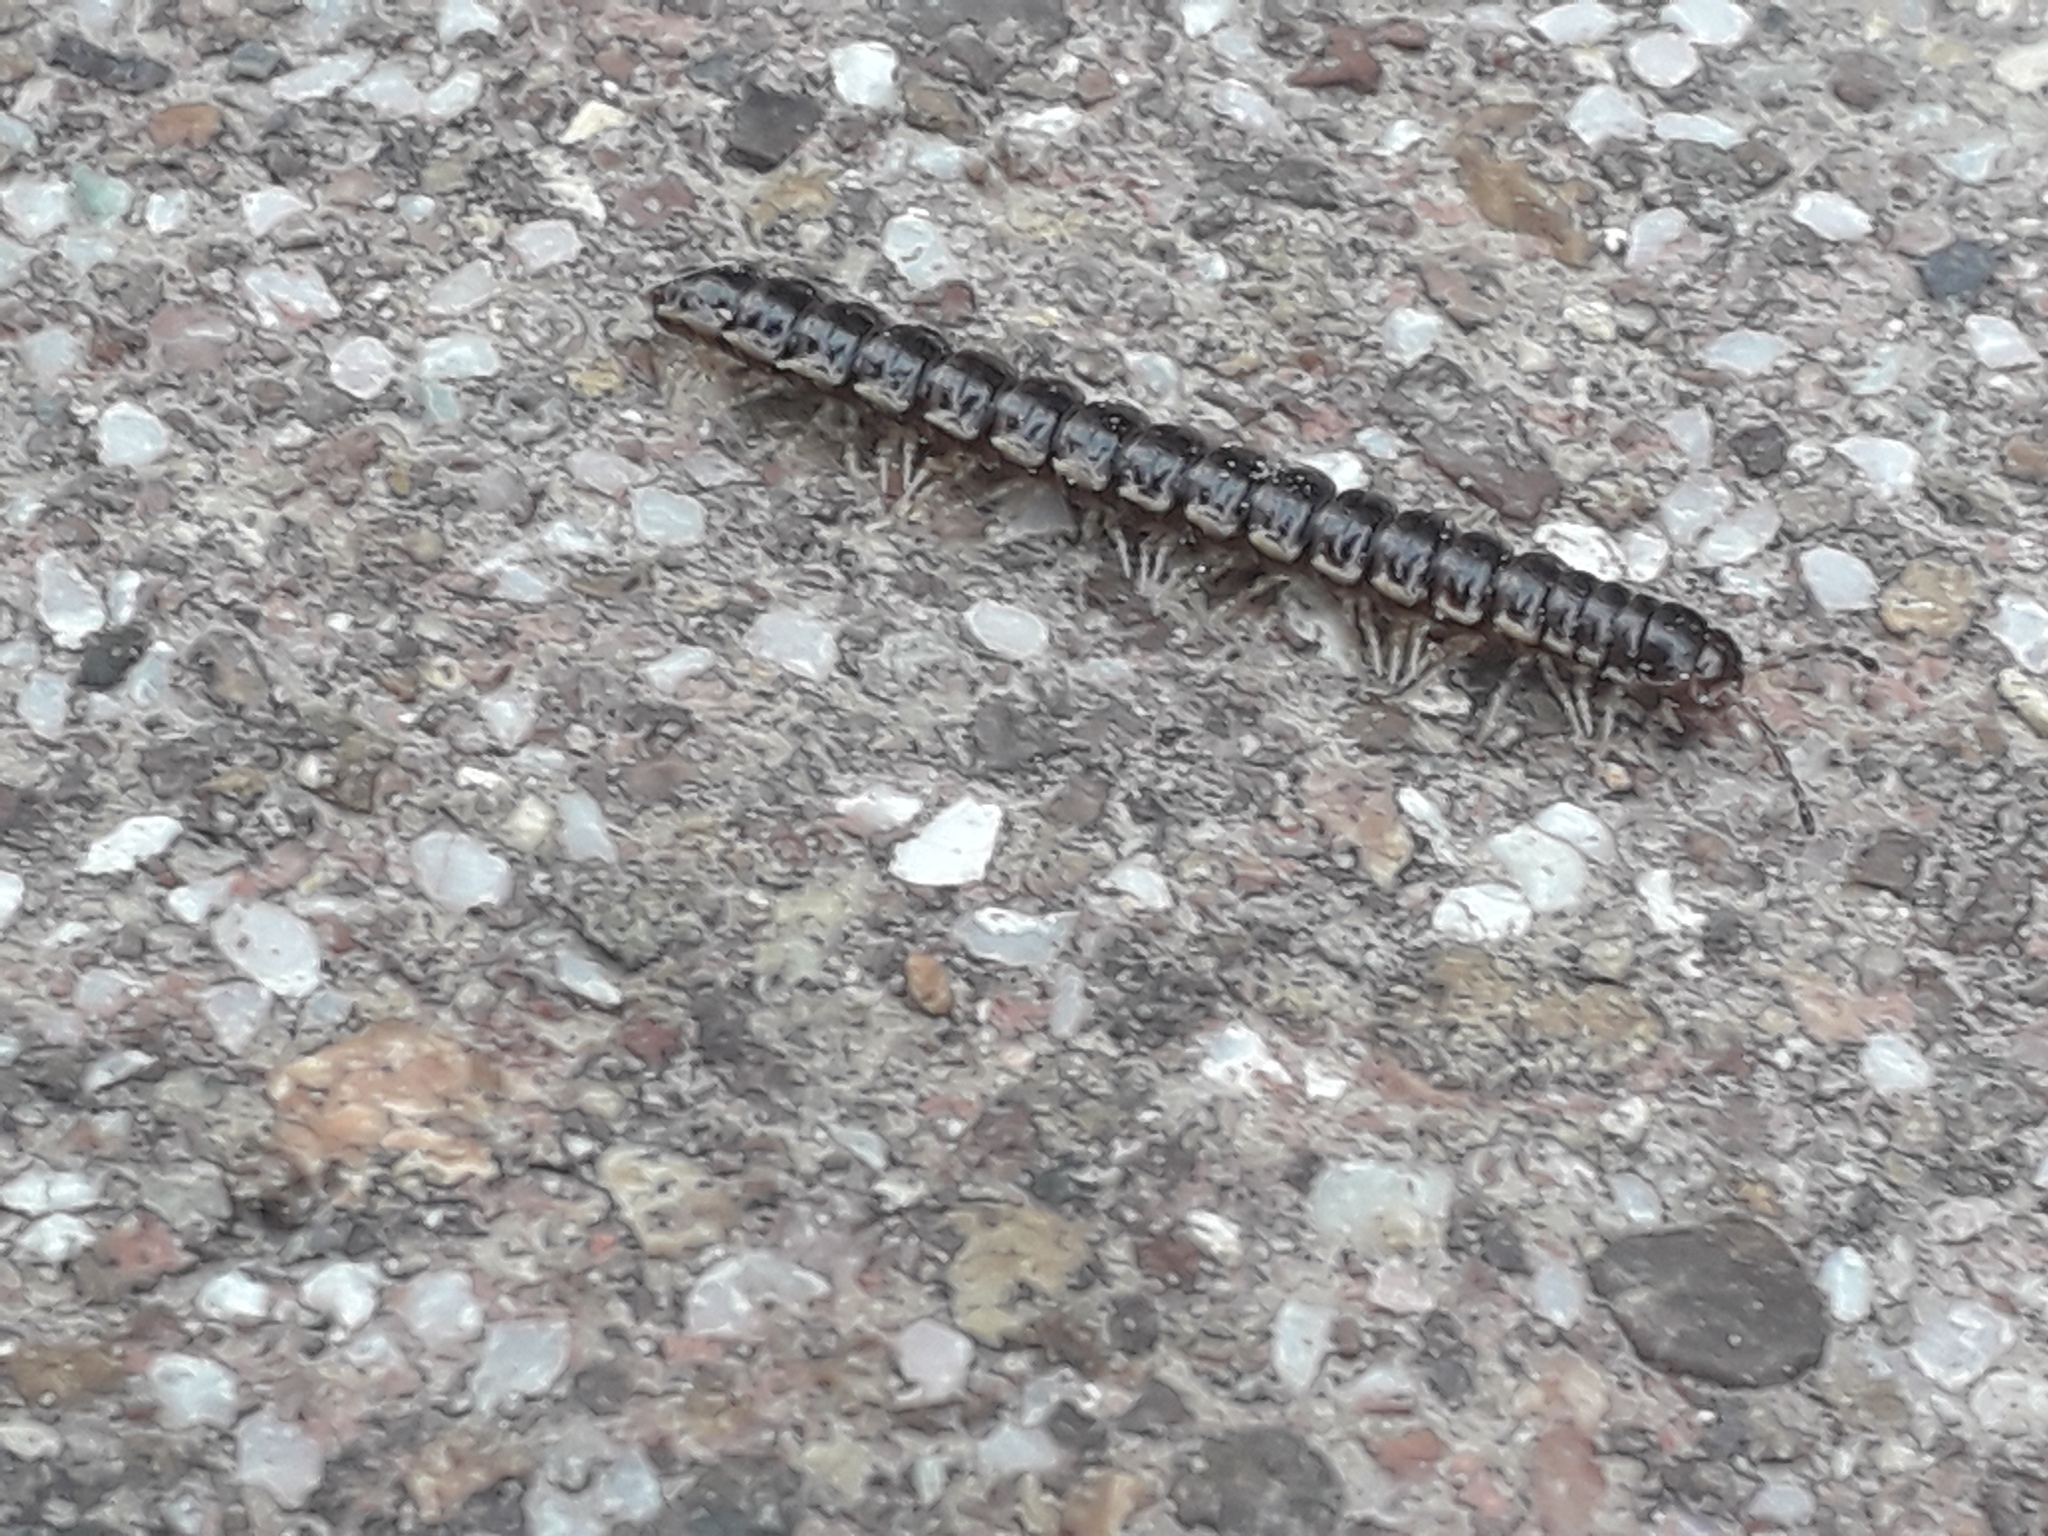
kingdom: Animalia
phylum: Arthropoda
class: Diplopoda
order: Polydesmida
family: Paradoxosomatidae
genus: Oxidus
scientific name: Oxidus gracilis
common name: Greenhouse millipede
